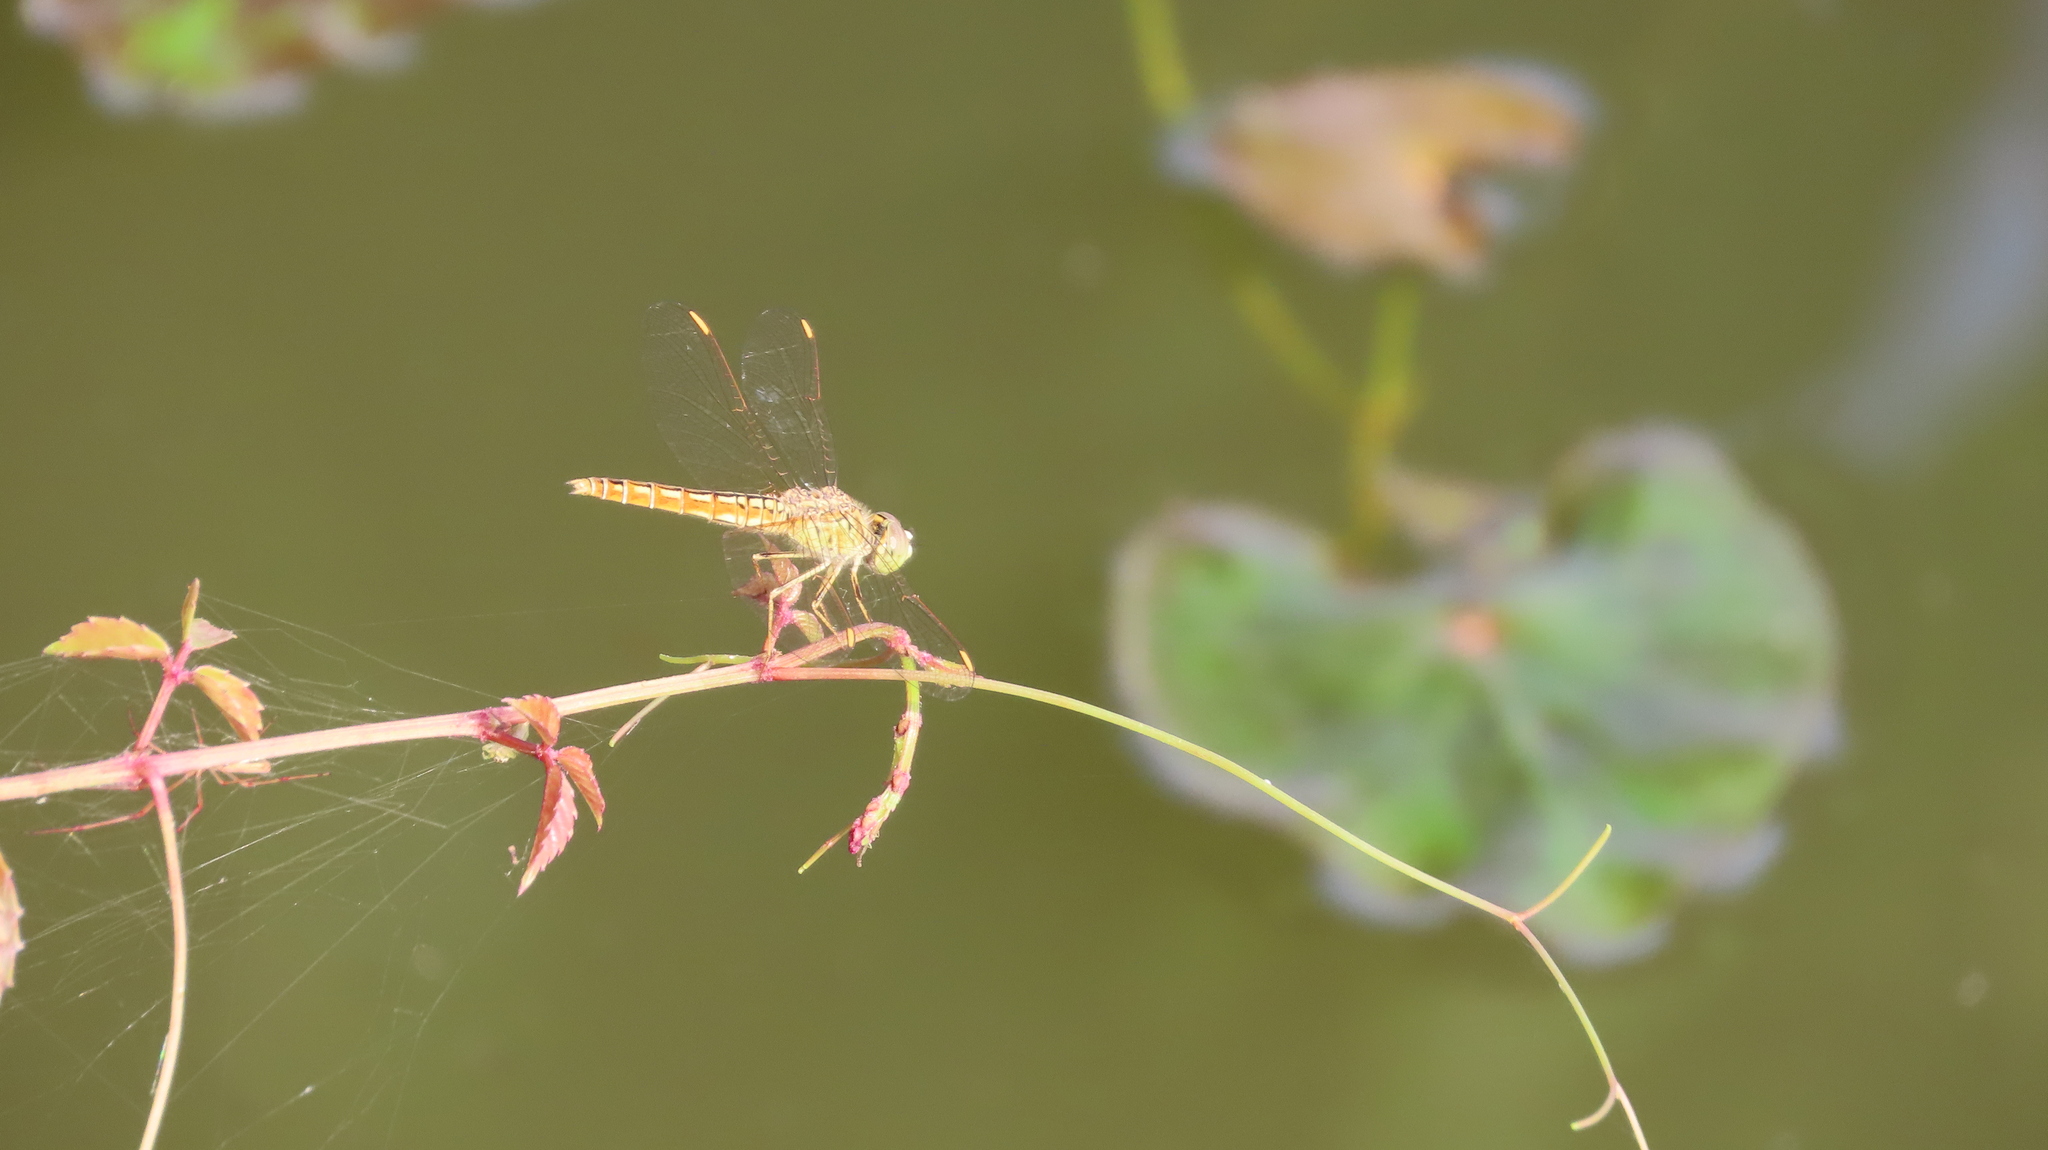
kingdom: Animalia
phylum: Arthropoda
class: Insecta
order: Odonata
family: Libellulidae
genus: Brachythemis
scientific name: Brachythemis contaminata
